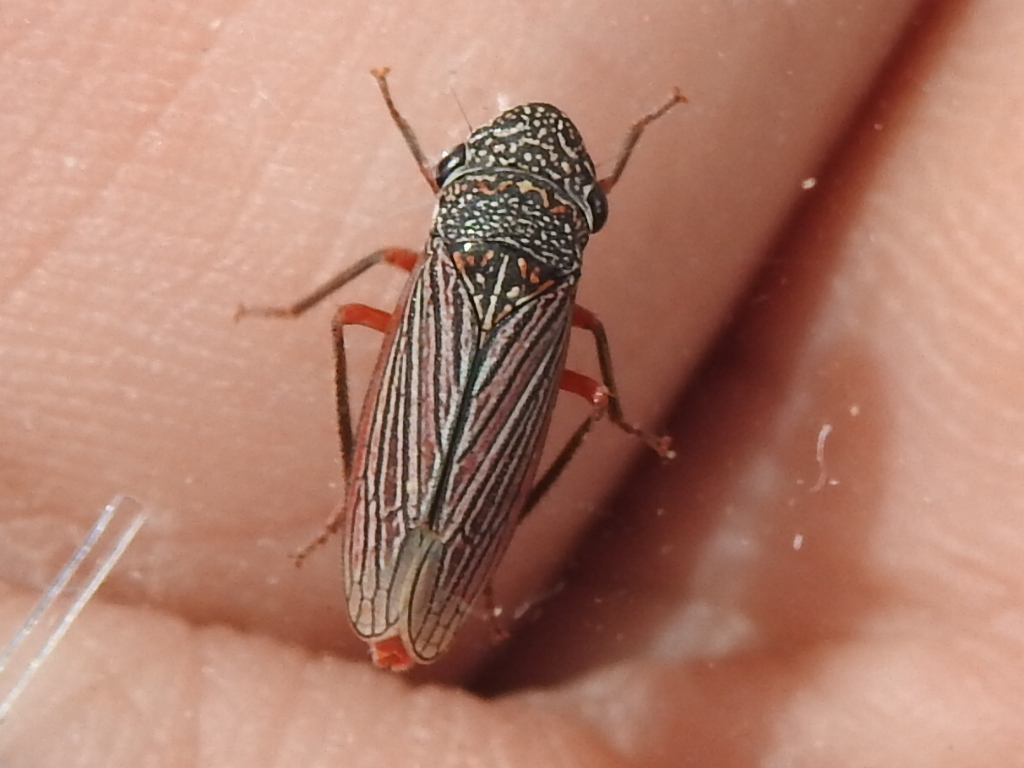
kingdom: Animalia
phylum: Arthropoda
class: Insecta
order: Hemiptera
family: Cicadellidae
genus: Cuerna
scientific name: Cuerna costalis
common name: Lateral-lined sharpshooter
